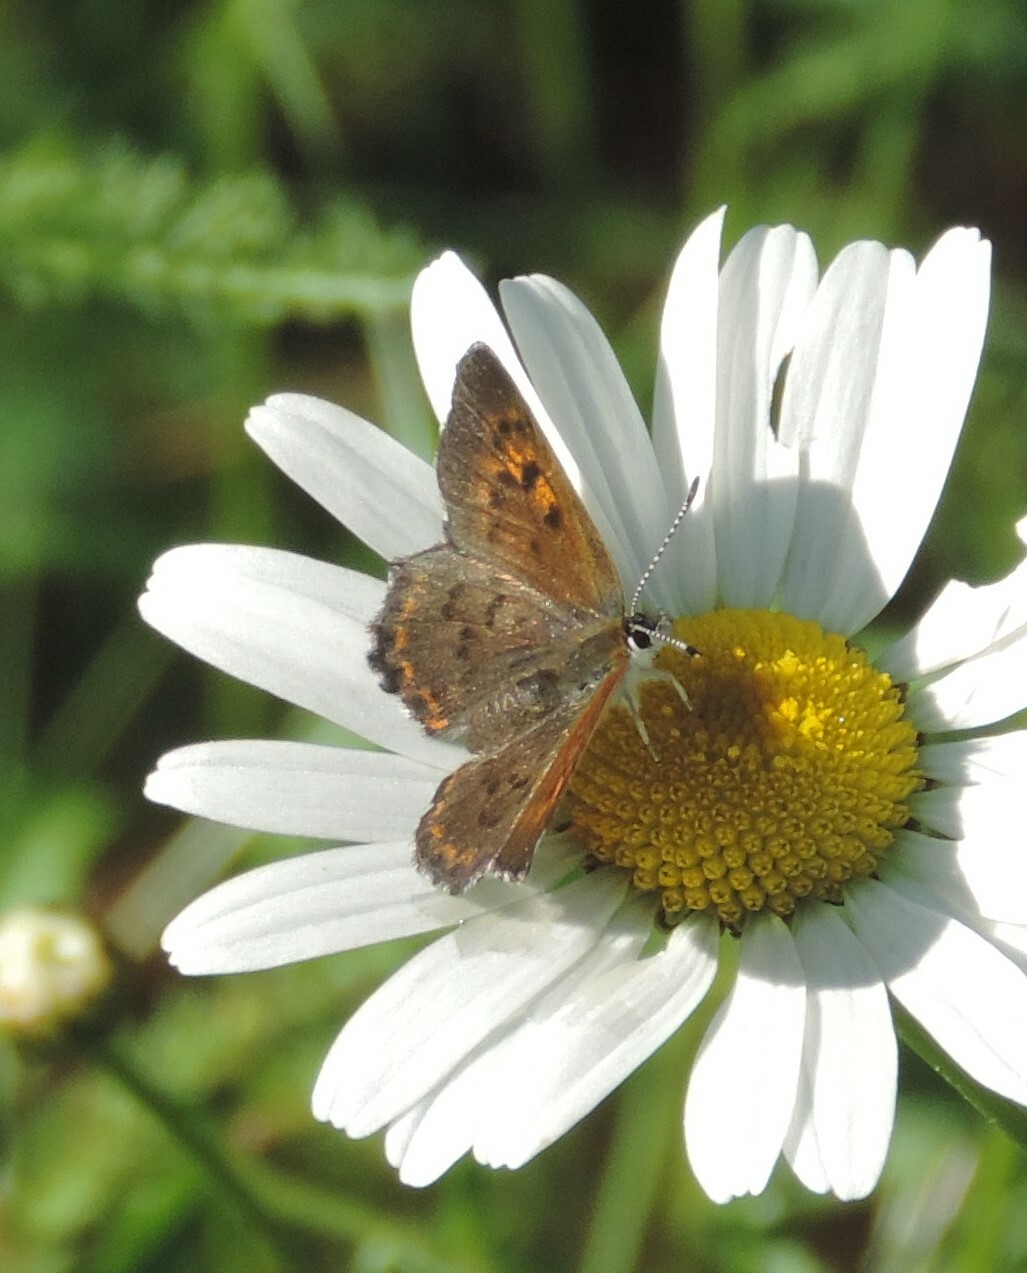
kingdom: Animalia
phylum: Arthropoda
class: Insecta
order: Lepidoptera
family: Lycaenidae
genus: Tharsalea
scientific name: Tharsalea mariposa
